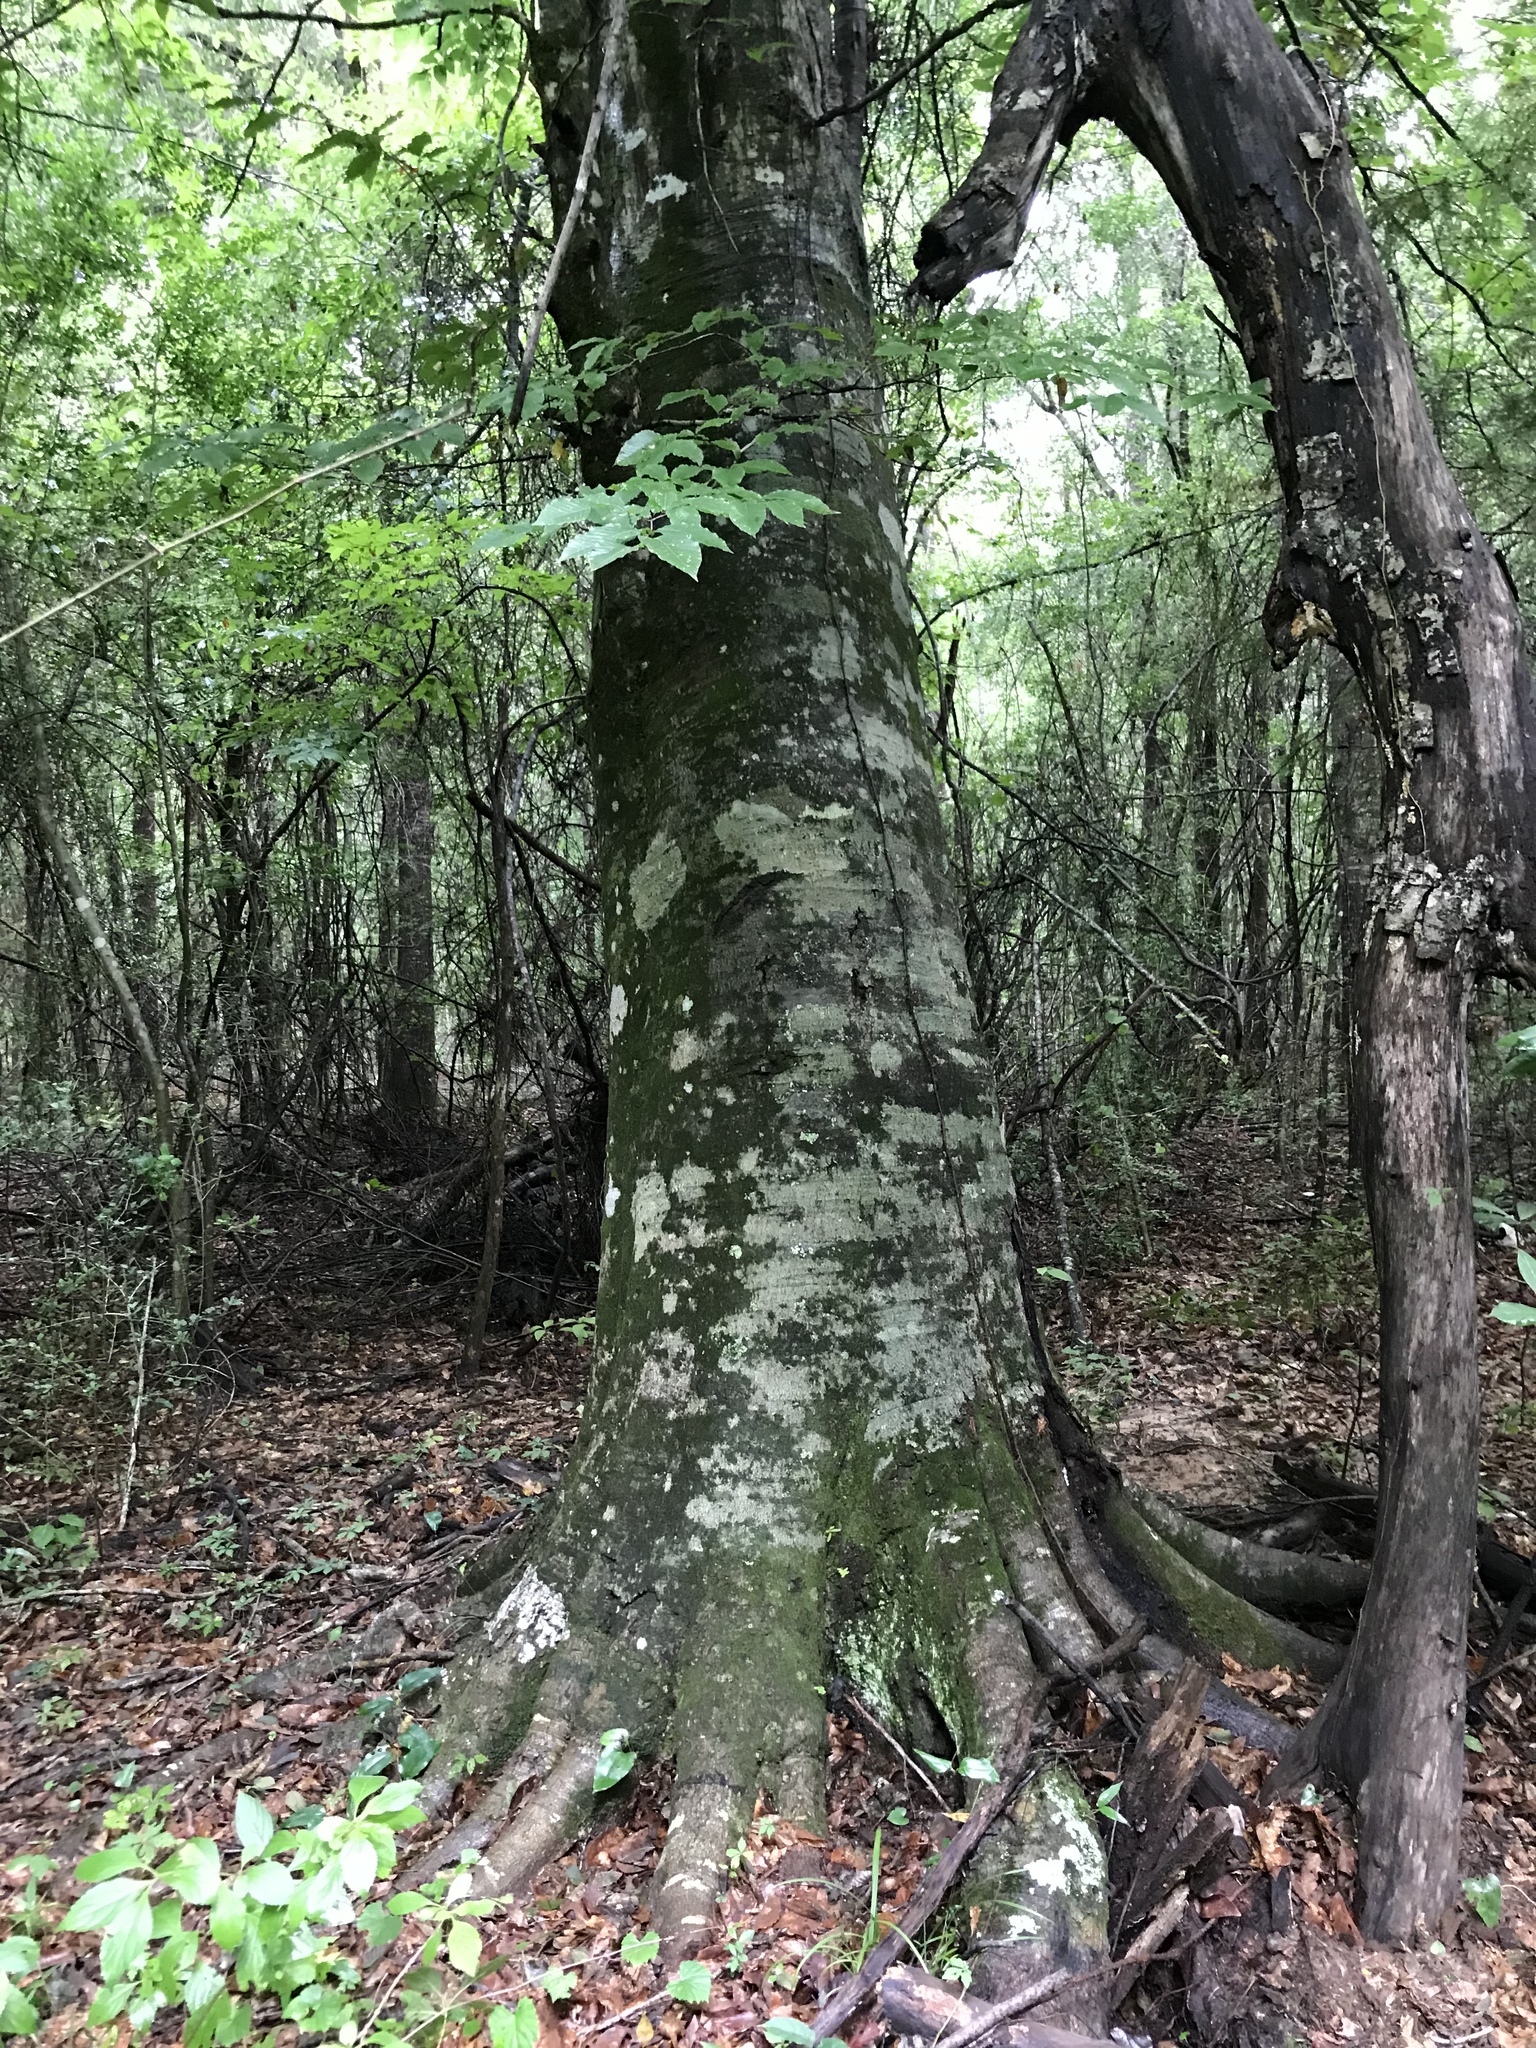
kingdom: Plantae
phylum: Tracheophyta
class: Magnoliopsida
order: Fagales
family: Fagaceae
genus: Fagus
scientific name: Fagus grandifolia
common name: American beech
